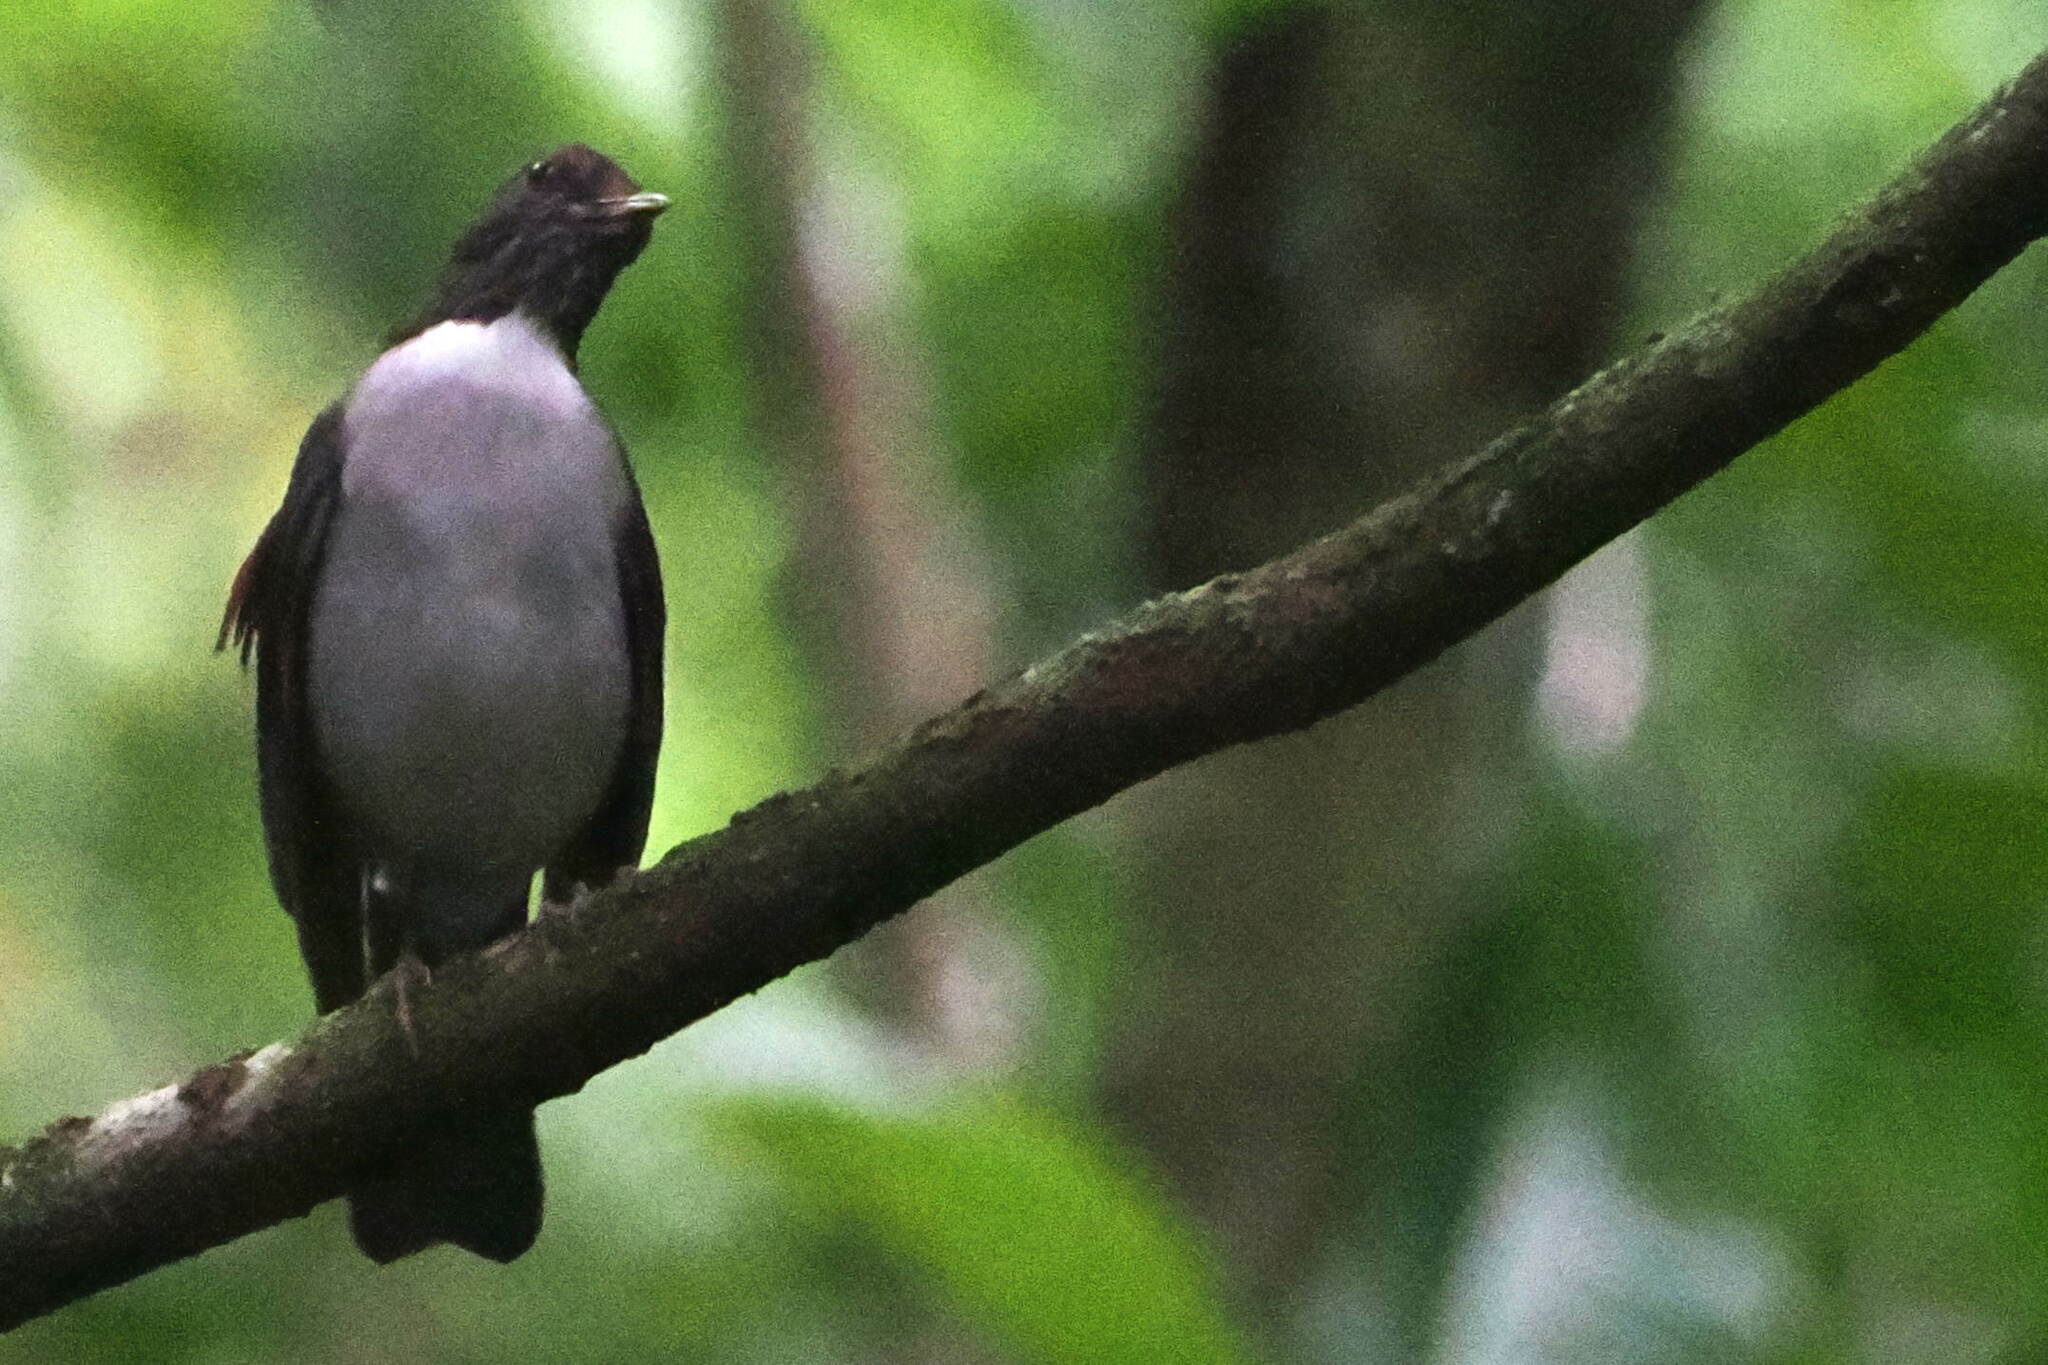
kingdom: Animalia
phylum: Chordata
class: Aves
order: Passeriformes
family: Turdidae
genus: Turdus
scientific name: Turdus albicollis
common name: White-necked thrush
